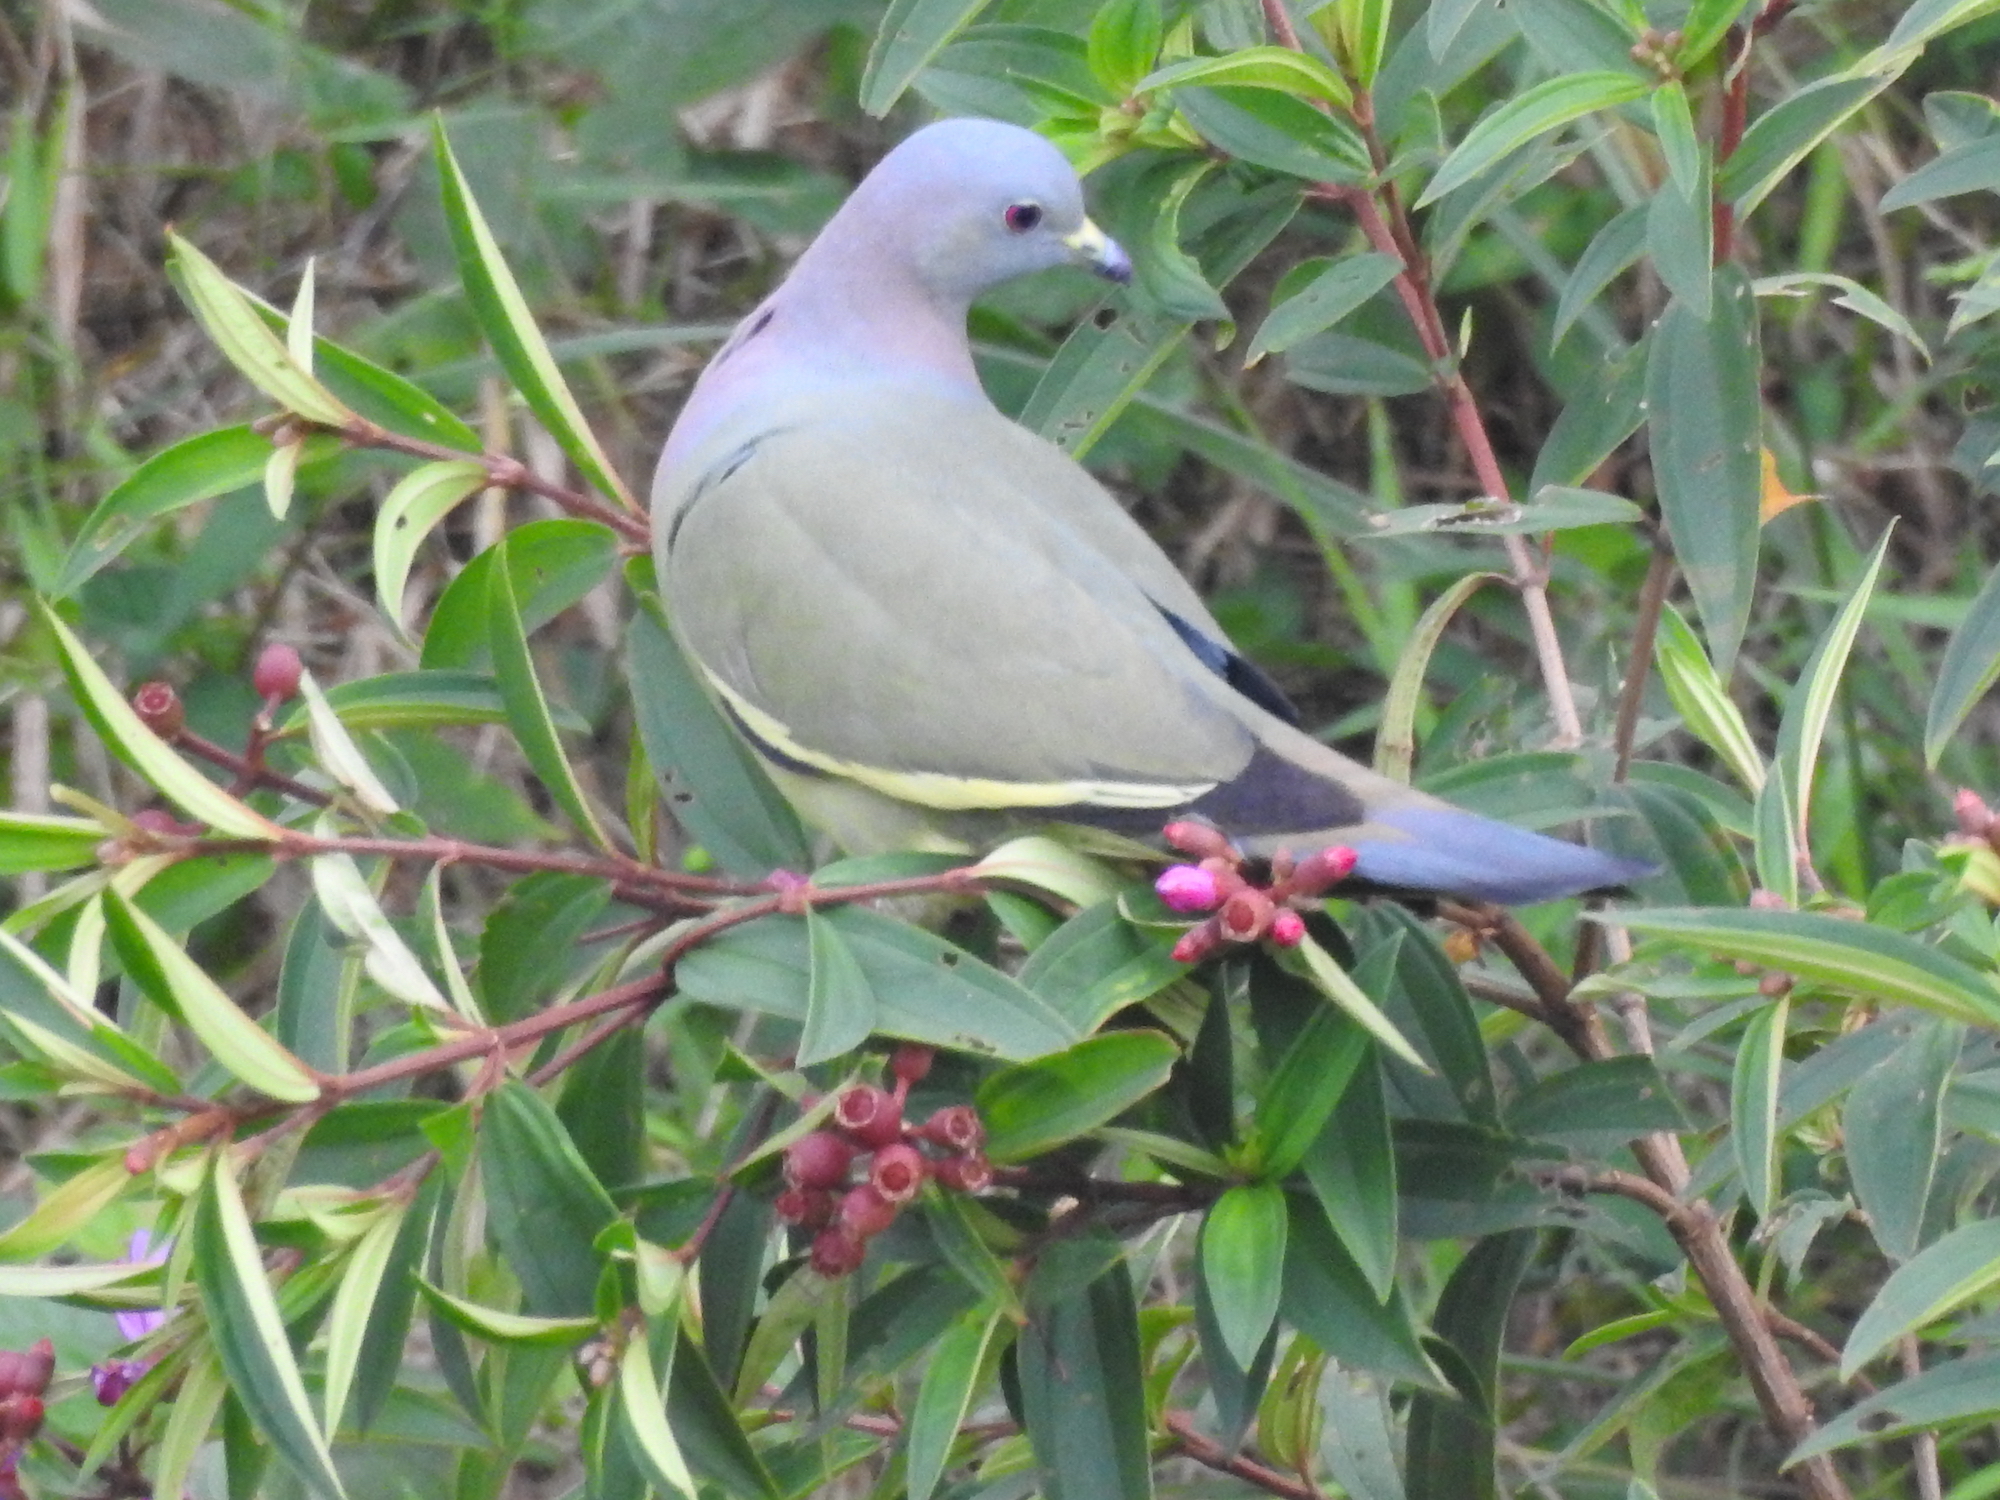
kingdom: Animalia
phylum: Chordata
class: Aves
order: Columbiformes
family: Columbidae
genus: Treron
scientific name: Treron vernans
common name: Pink-necked green pigeon
